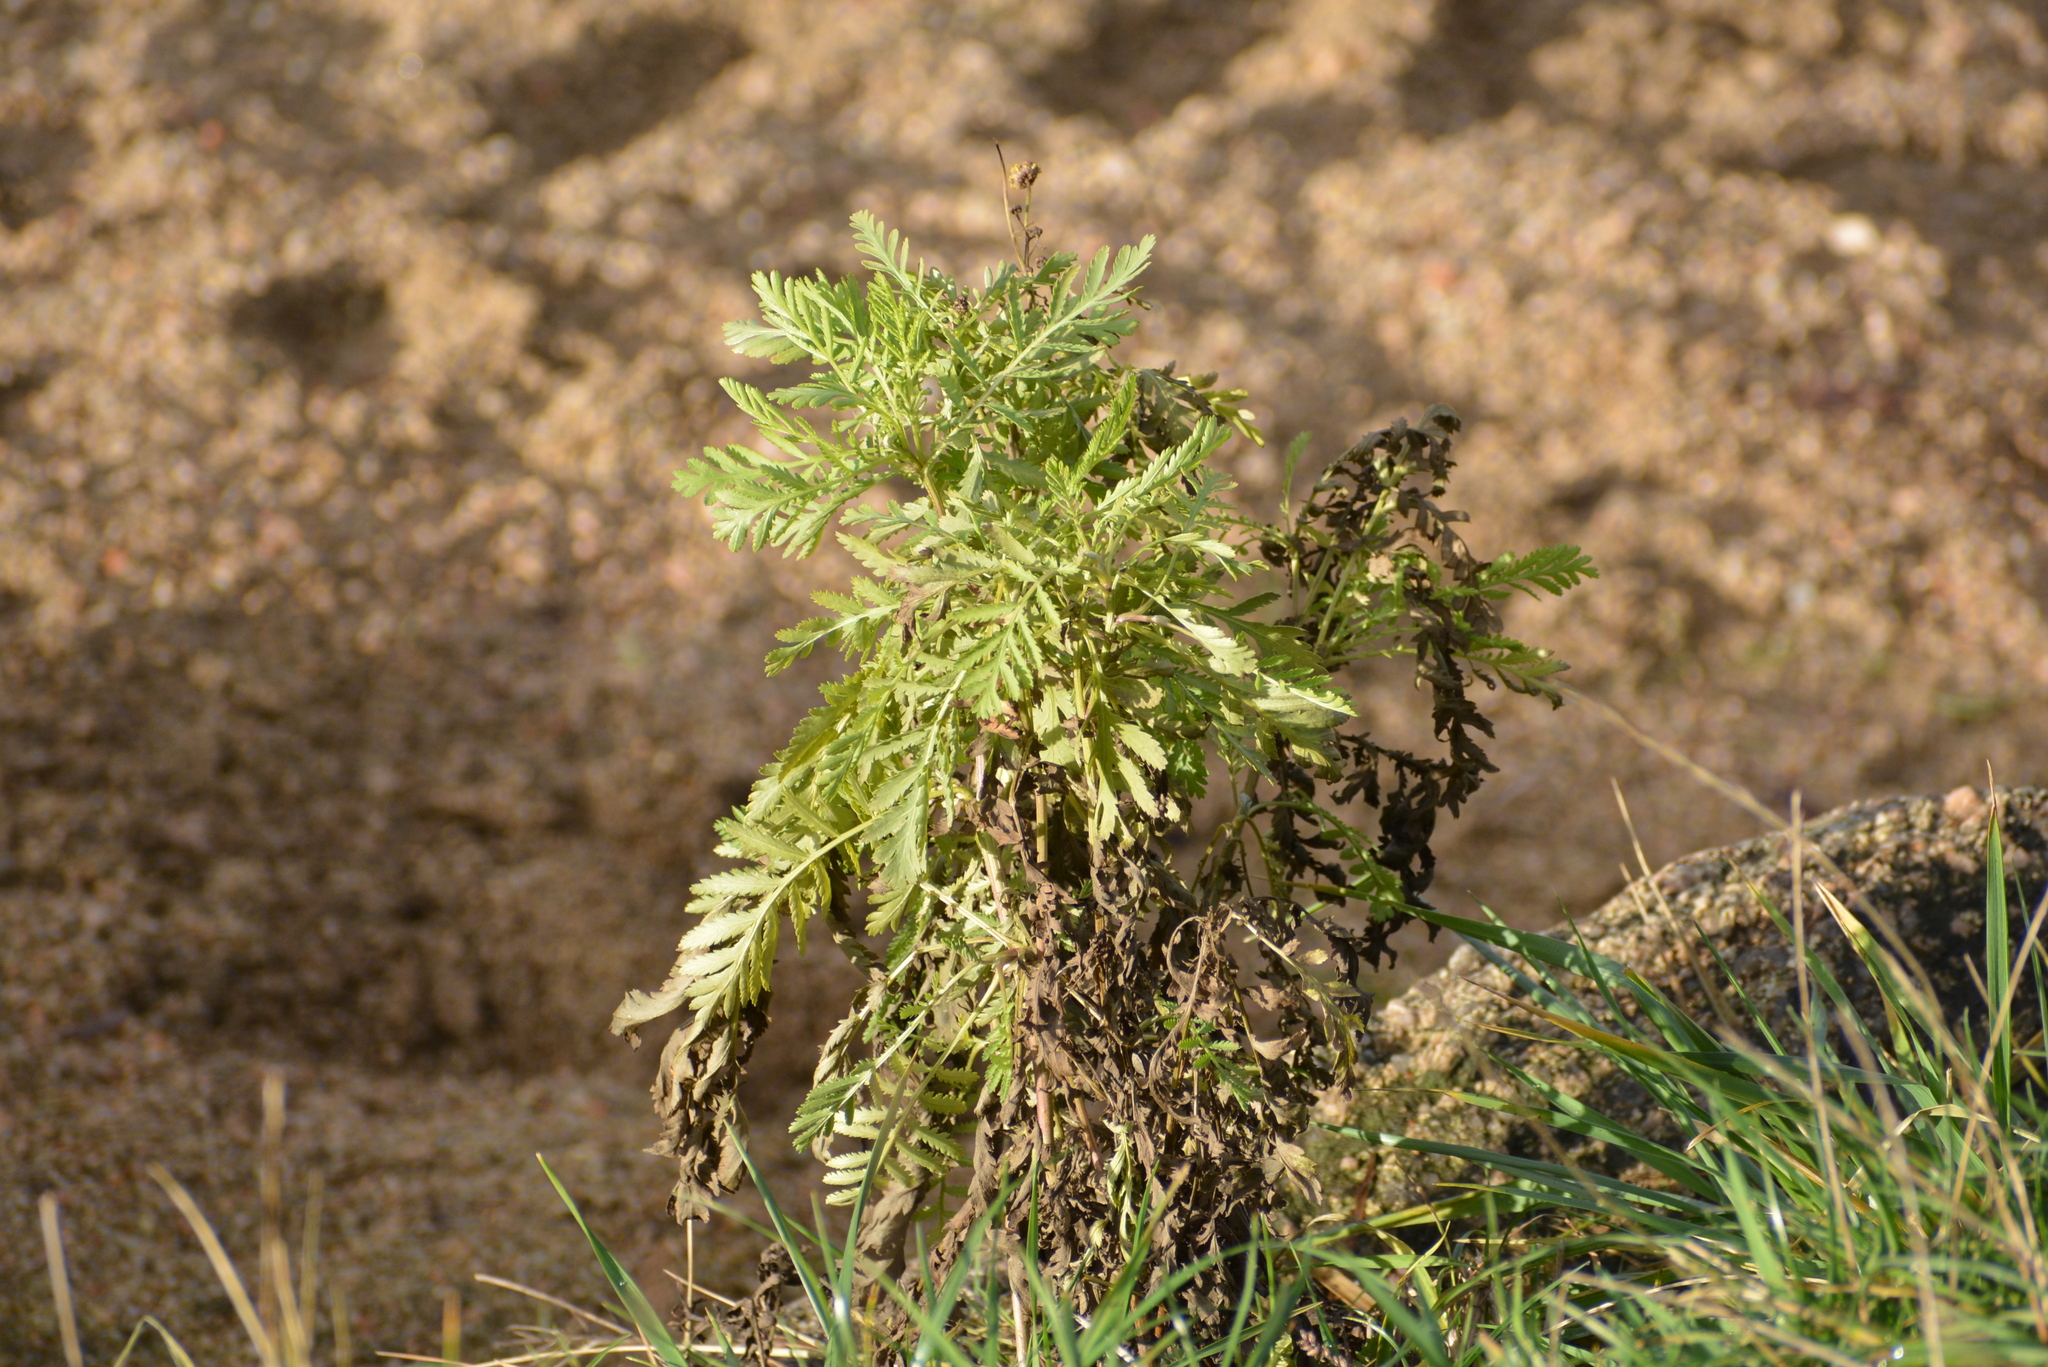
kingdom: Plantae
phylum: Tracheophyta
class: Magnoliopsida
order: Asterales
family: Asteraceae
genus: Tanacetum
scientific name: Tanacetum vulgare
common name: Common tansy
